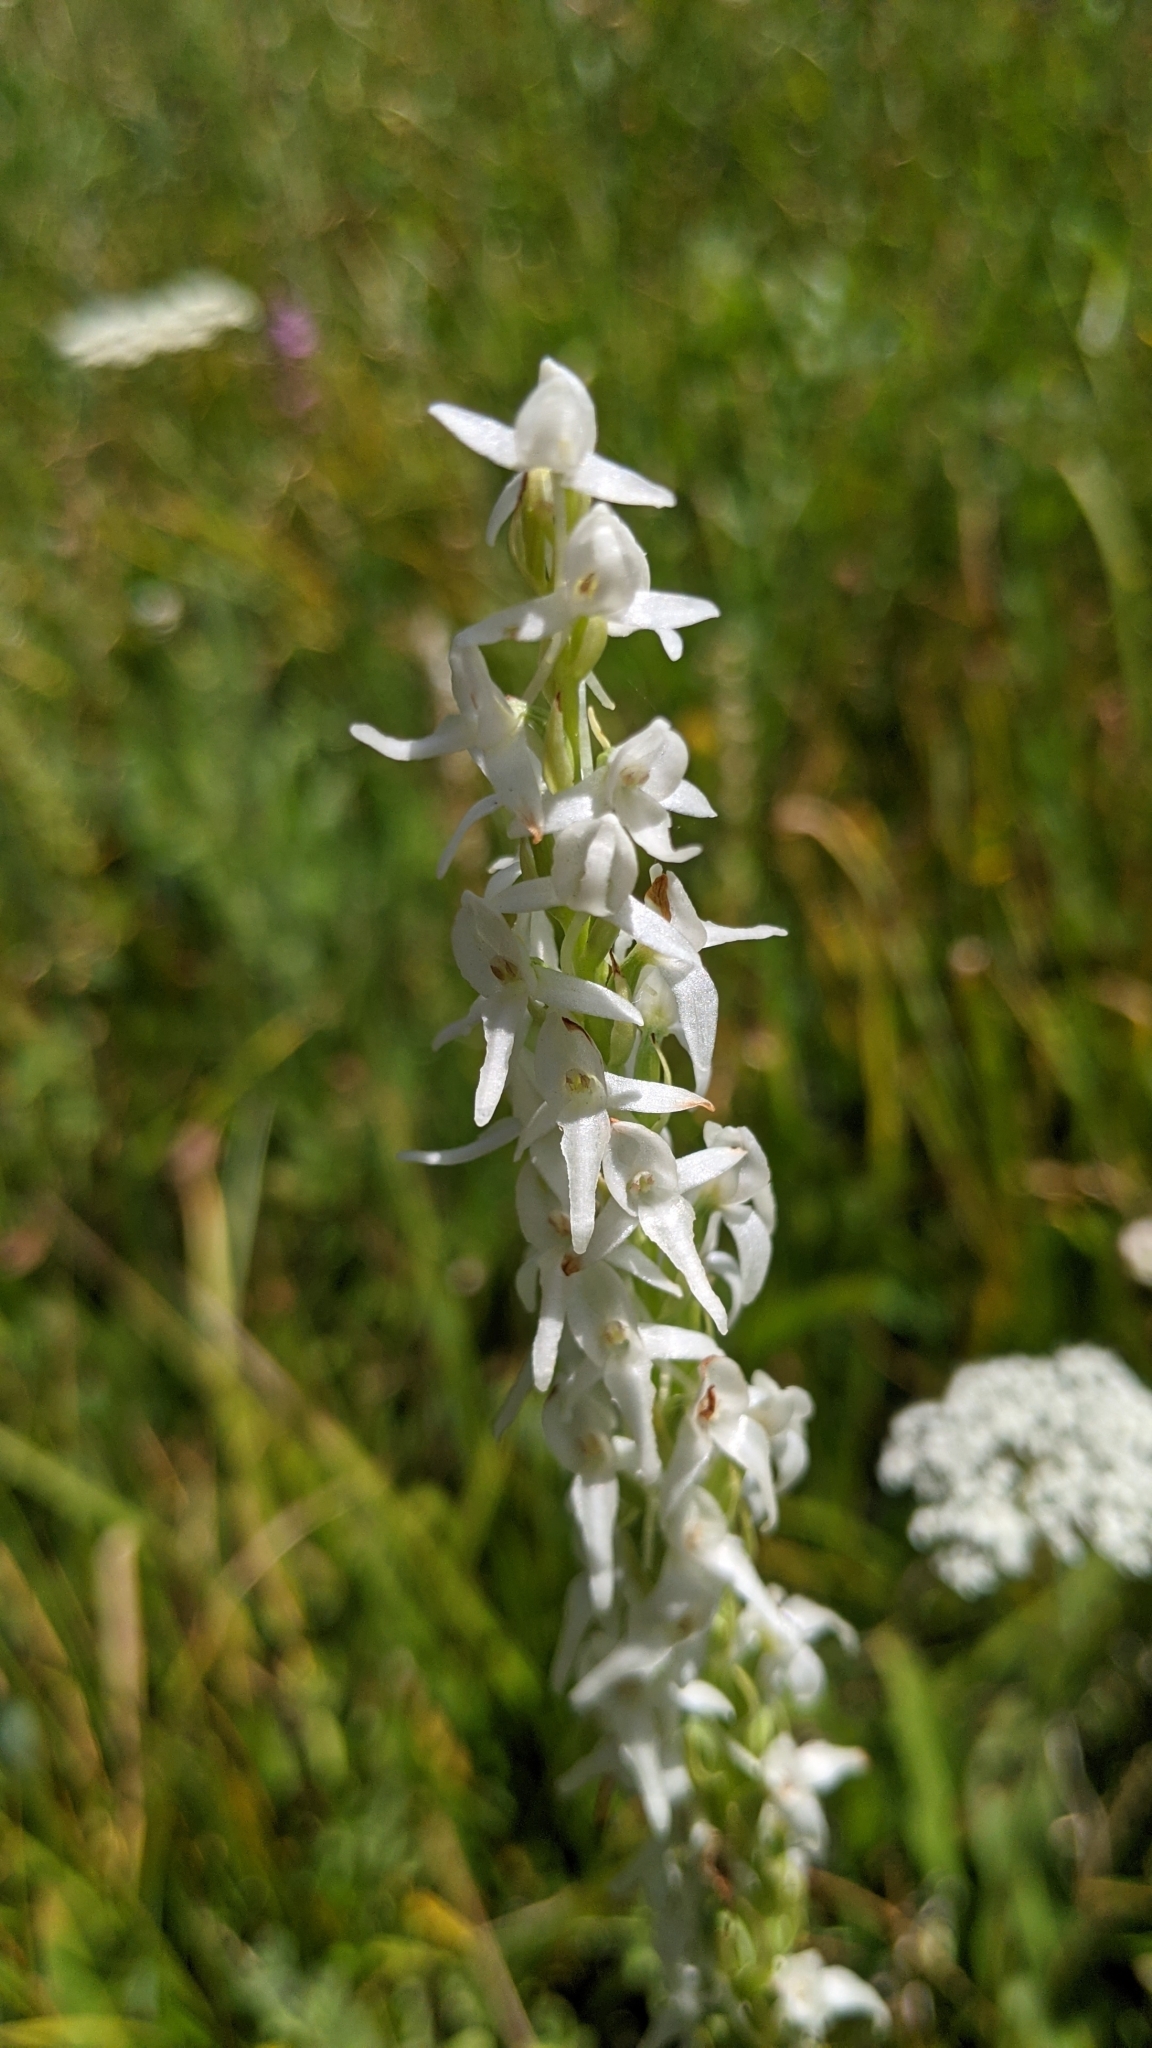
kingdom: Plantae
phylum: Tracheophyta
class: Liliopsida
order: Asparagales
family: Orchidaceae
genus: Platanthera
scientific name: Platanthera dilatata
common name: Bog candles
